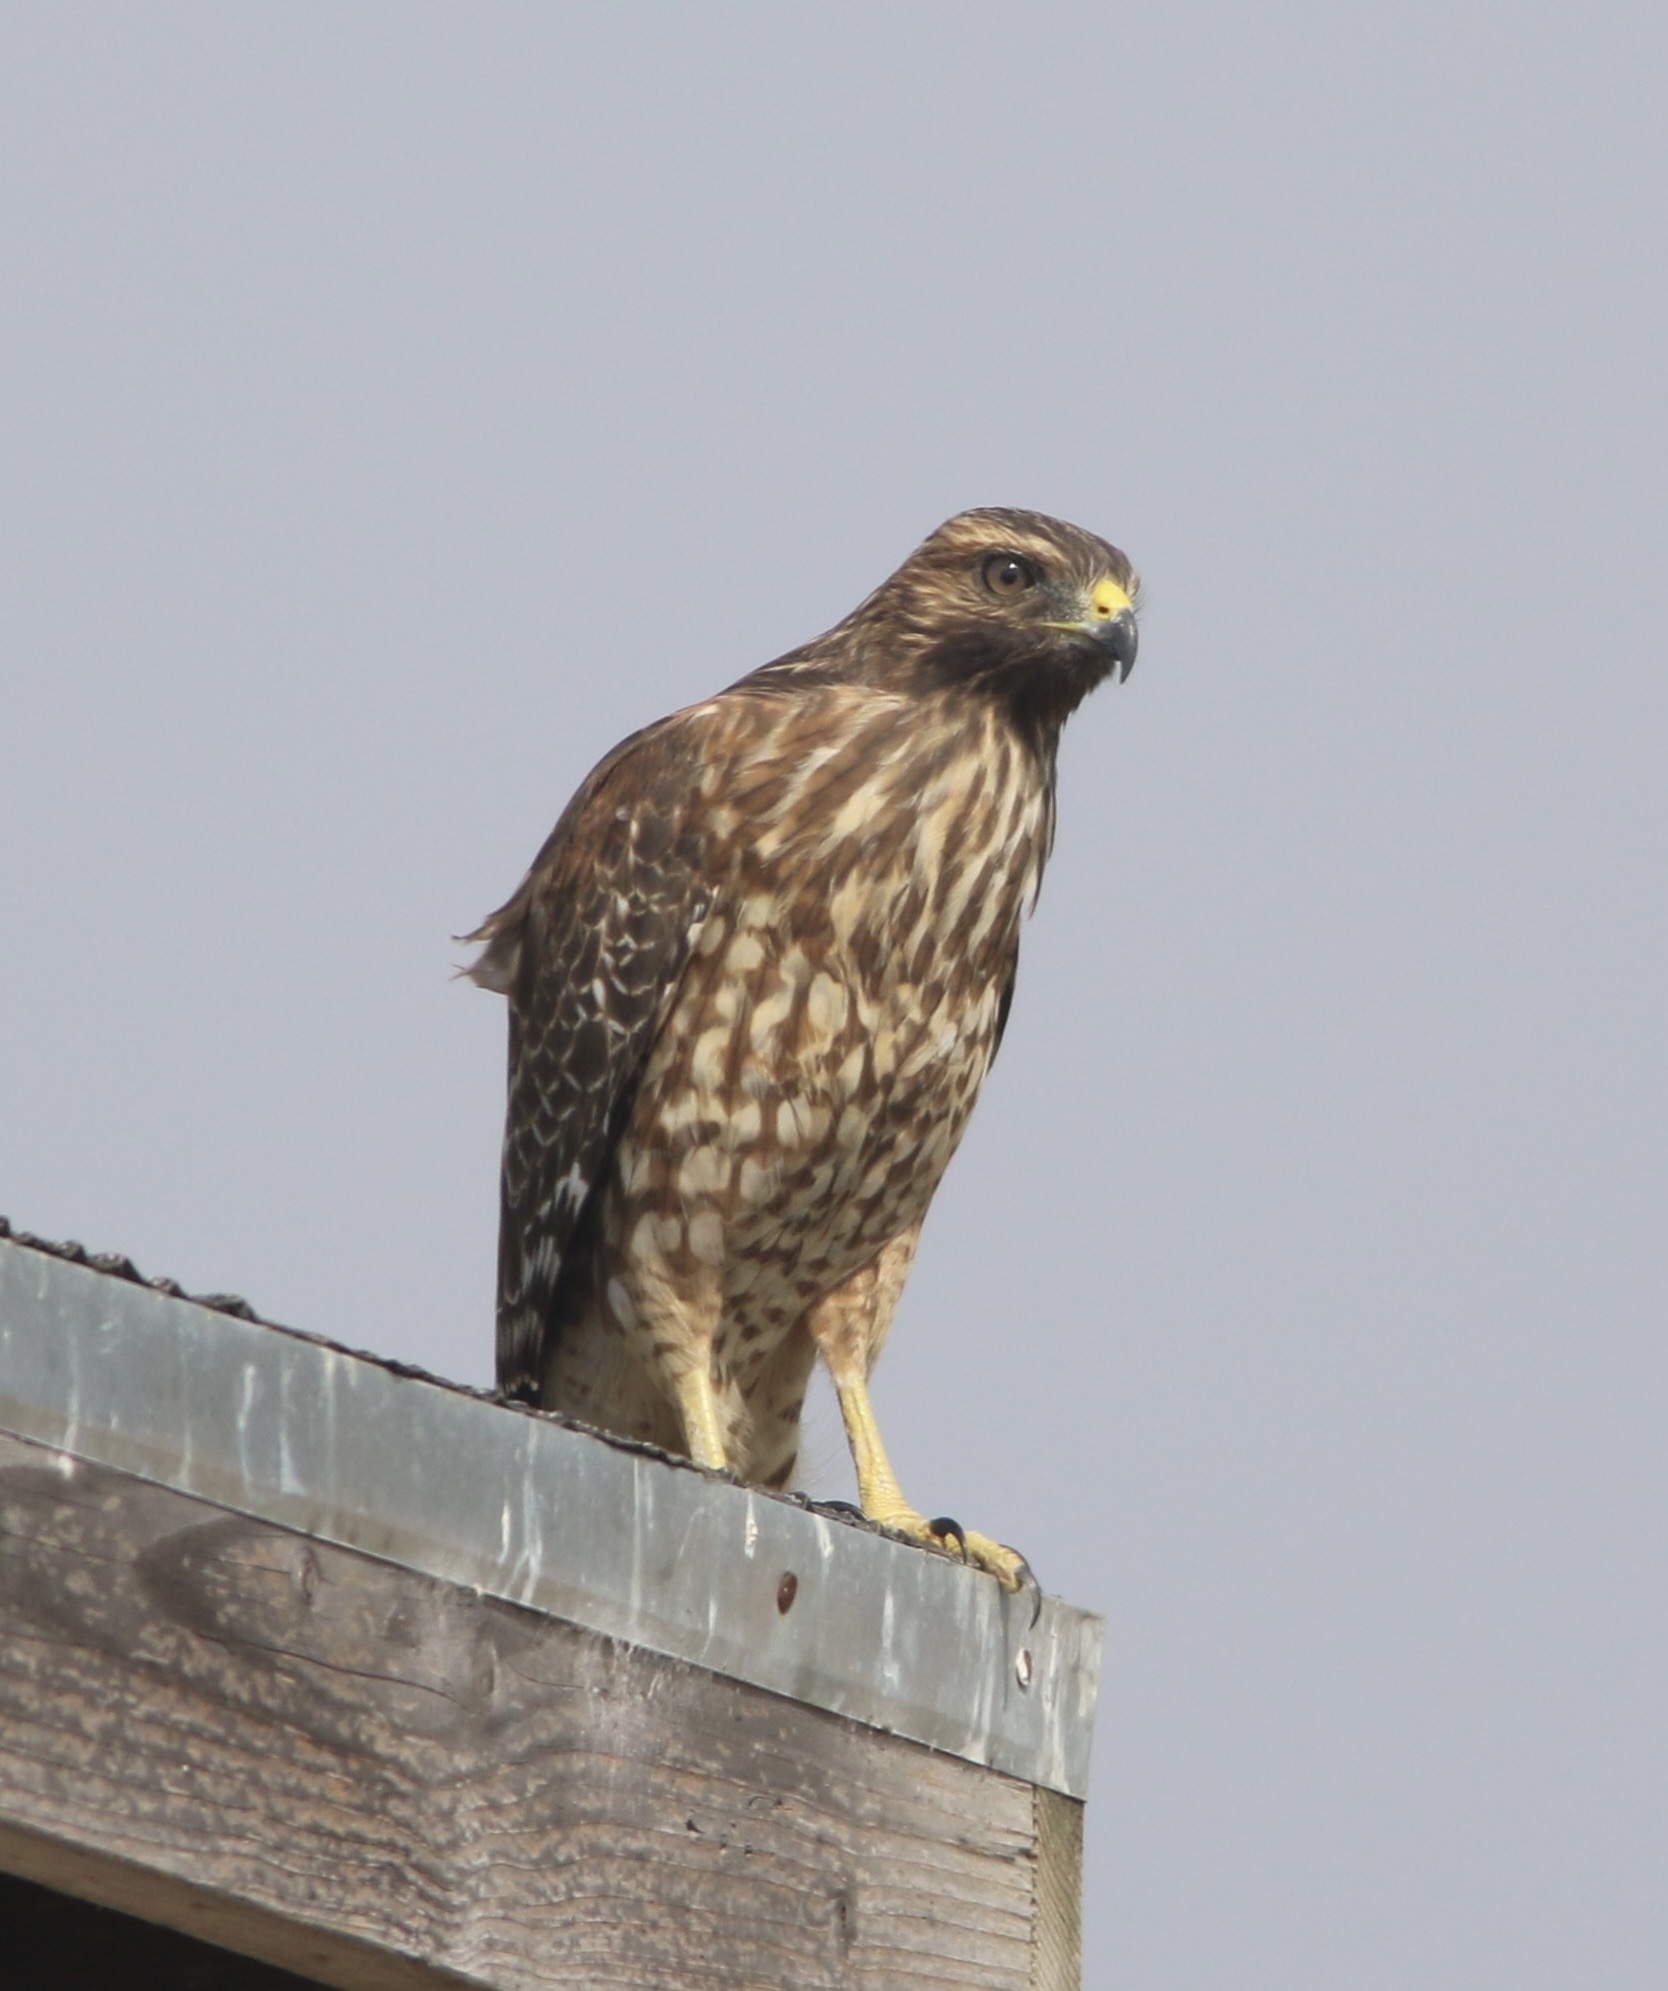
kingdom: Animalia
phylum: Chordata
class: Aves
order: Accipitriformes
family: Accipitridae
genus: Buteo
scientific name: Buteo lineatus
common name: Red-shouldered hawk
